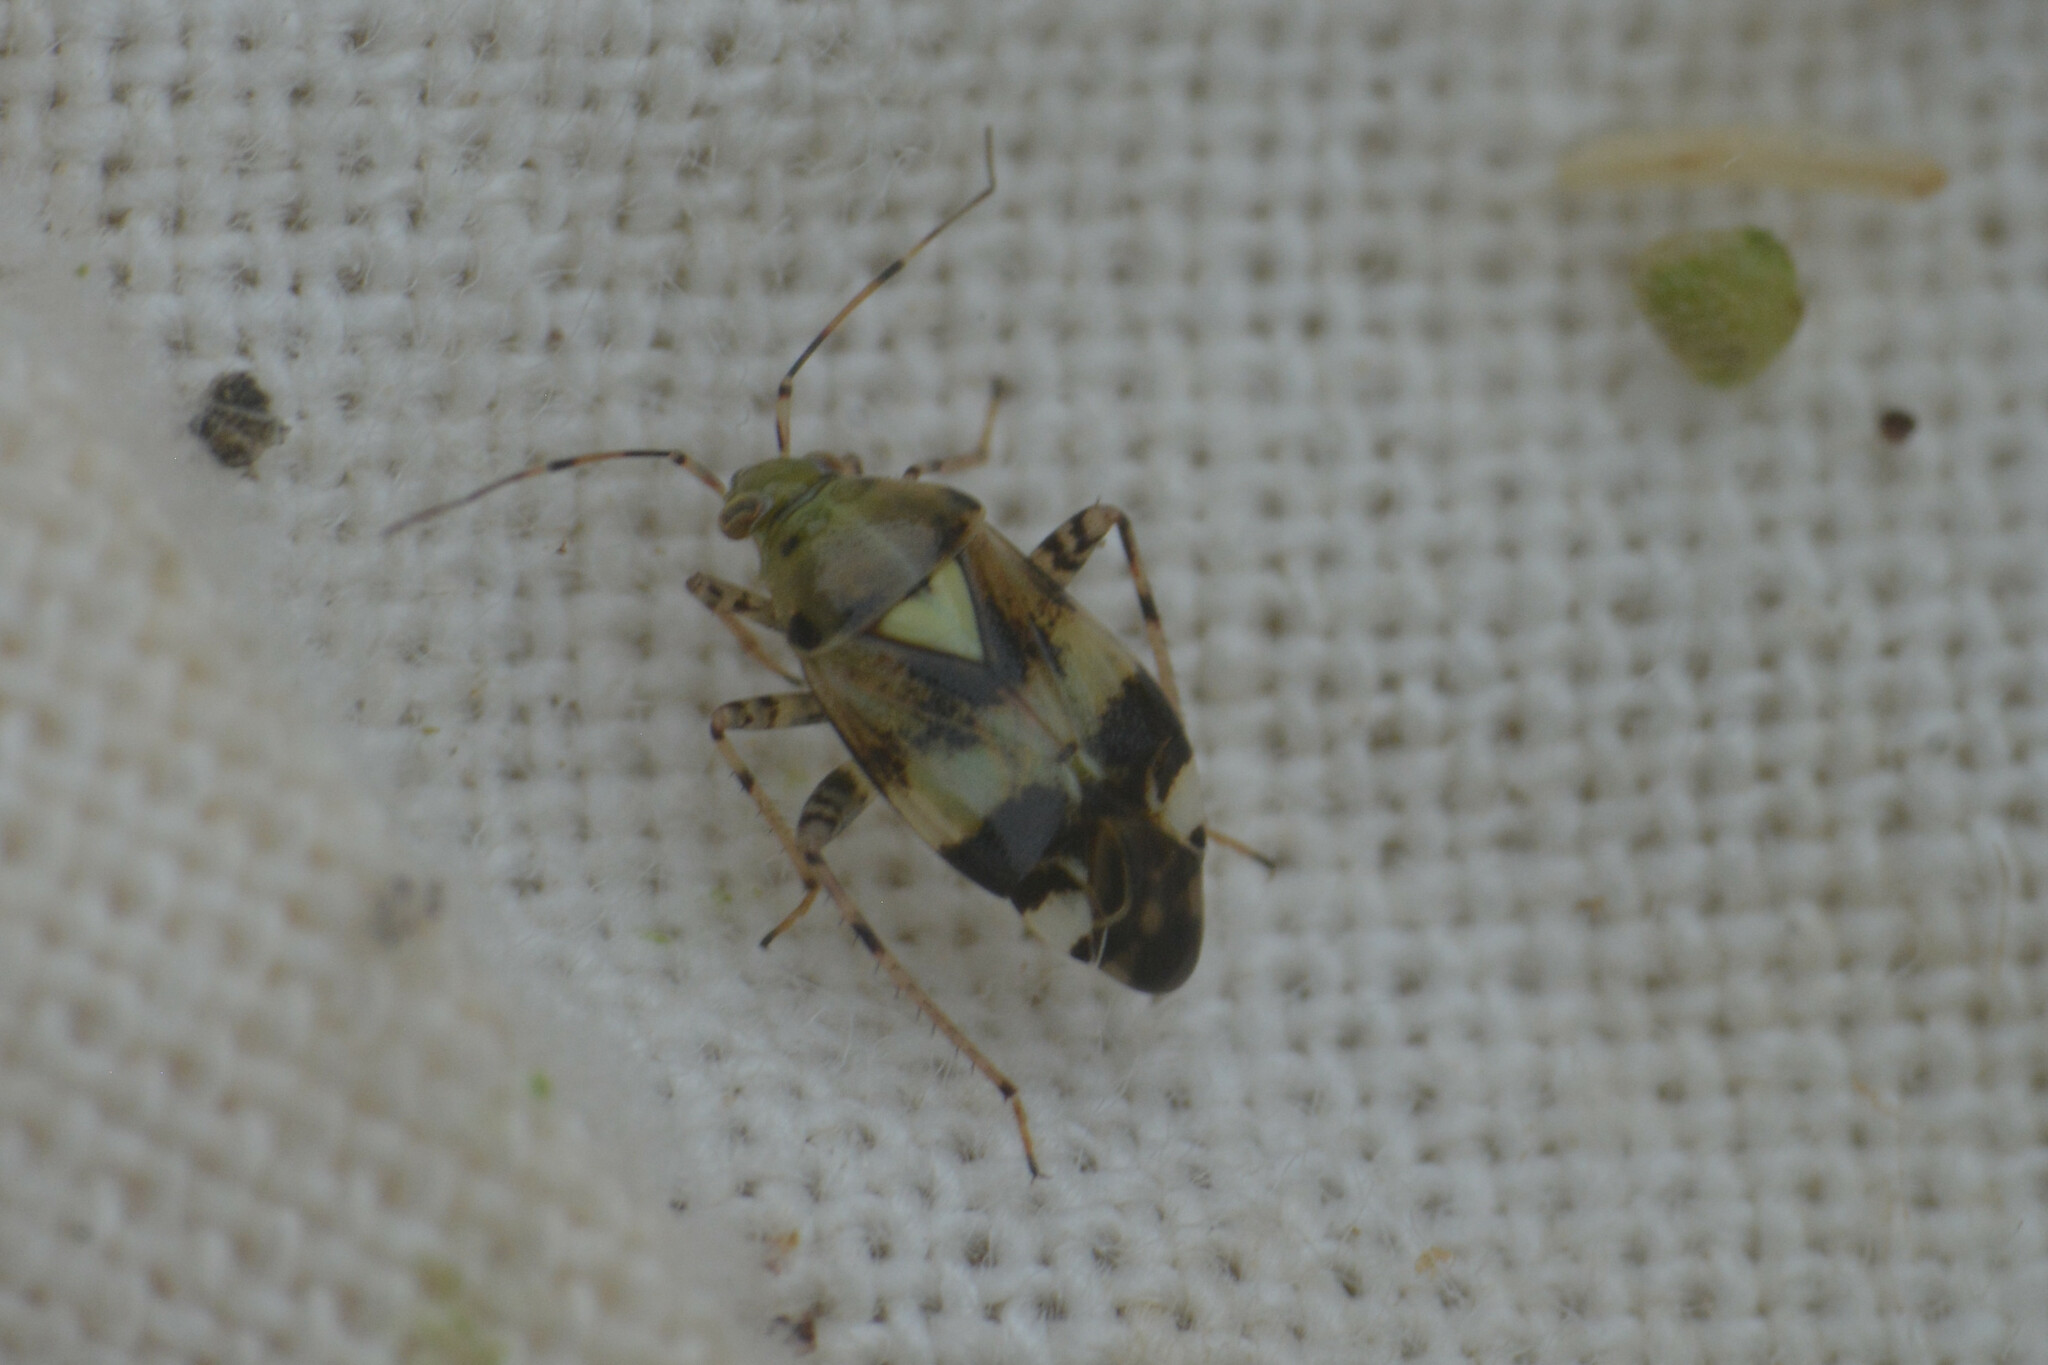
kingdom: Animalia
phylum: Arthropoda
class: Insecta
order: Hemiptera
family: Miridae
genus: Liocoris
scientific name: Liocoris tripustulatus
